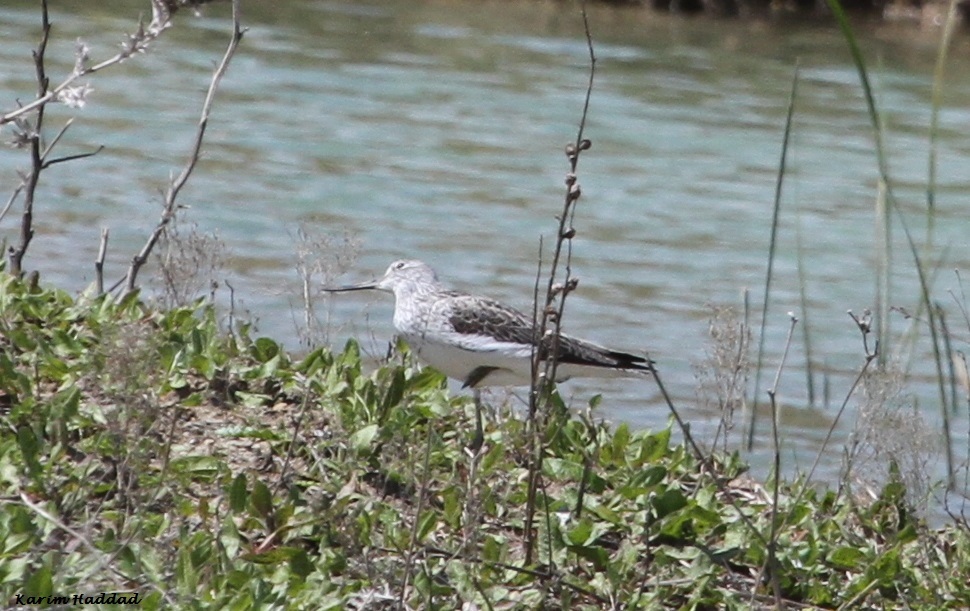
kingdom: Animalia
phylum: Chordata
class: Aves
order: Charadriiformes
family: Scolopacidae
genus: Tringa
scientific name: Tringa nebularia
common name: Common greenshank
